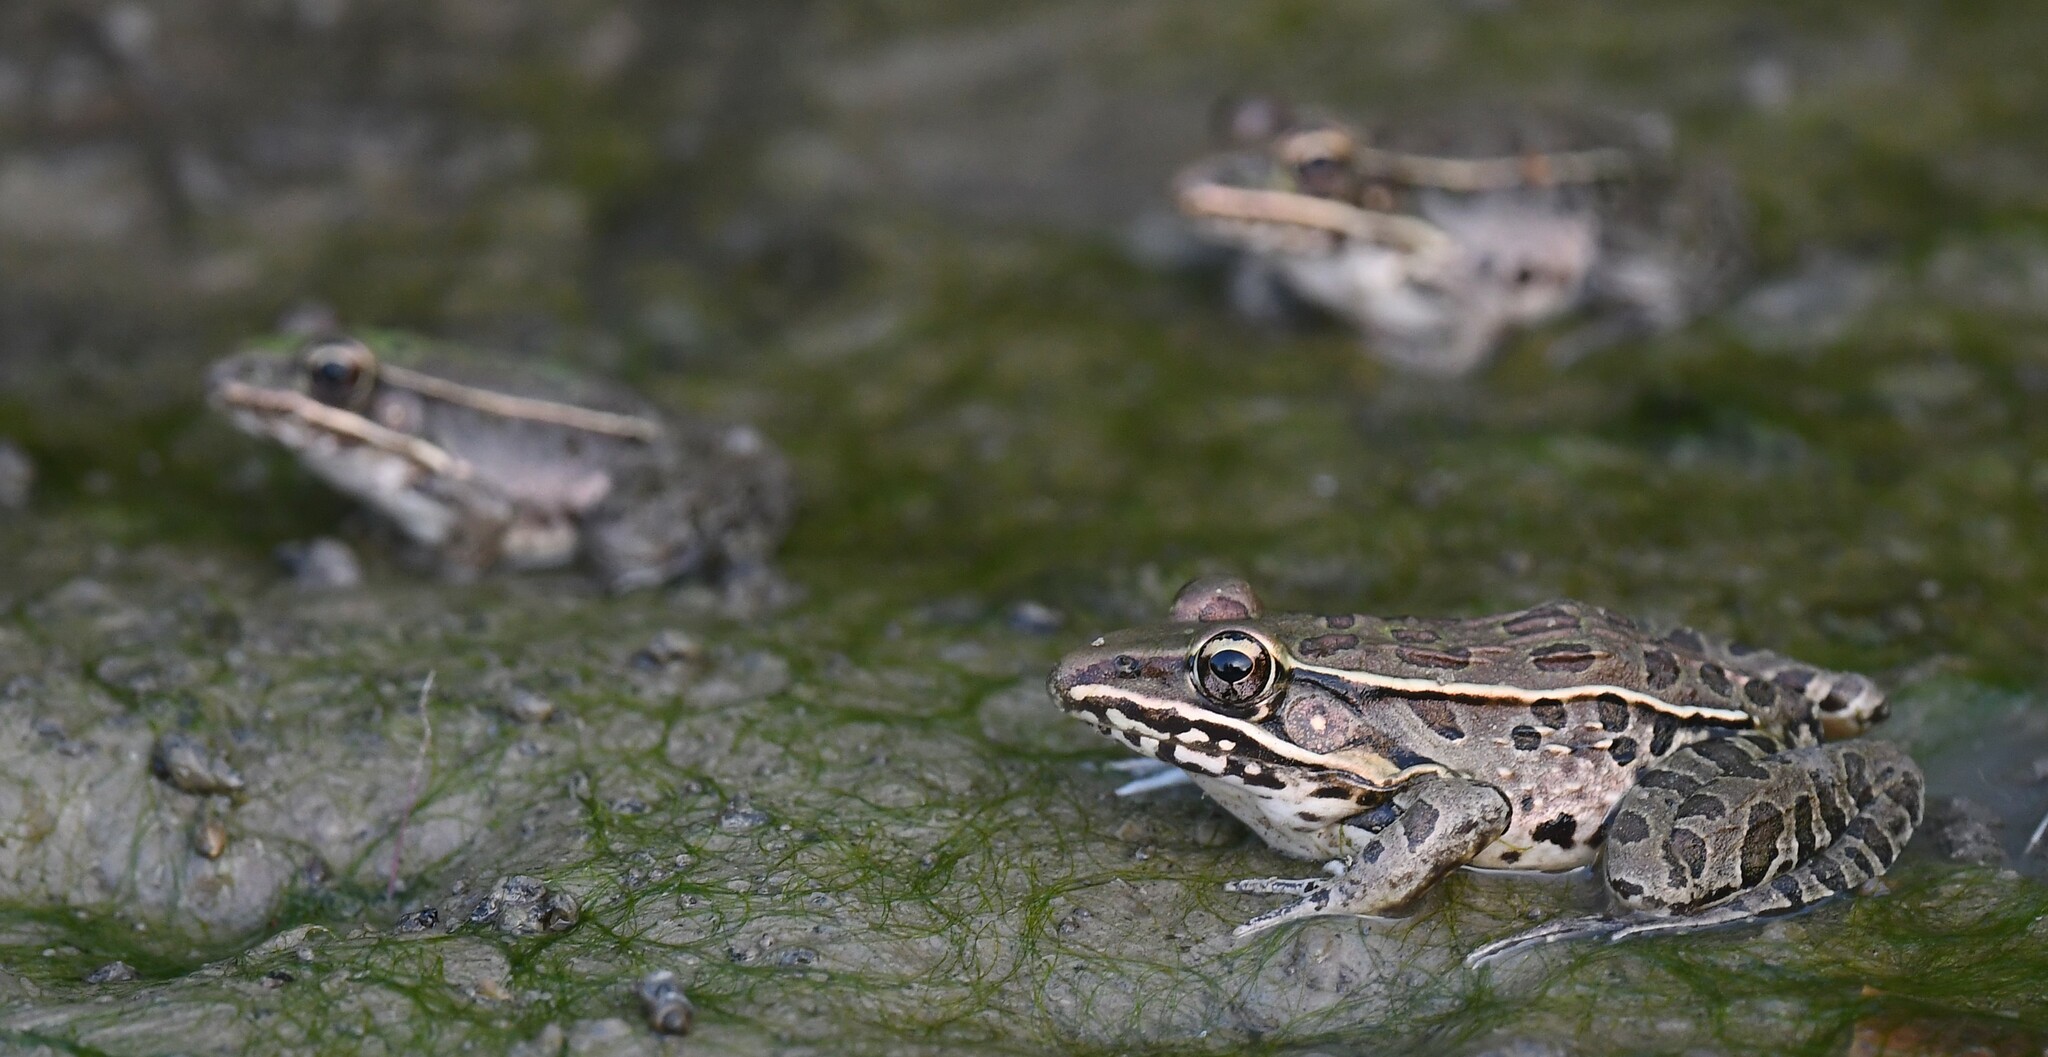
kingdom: Animalia
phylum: Chordata
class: Amphibia
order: Anura
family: Ranidae
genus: Lithobates
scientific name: Lithobates sphenocephalus
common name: Southern leopard frog
